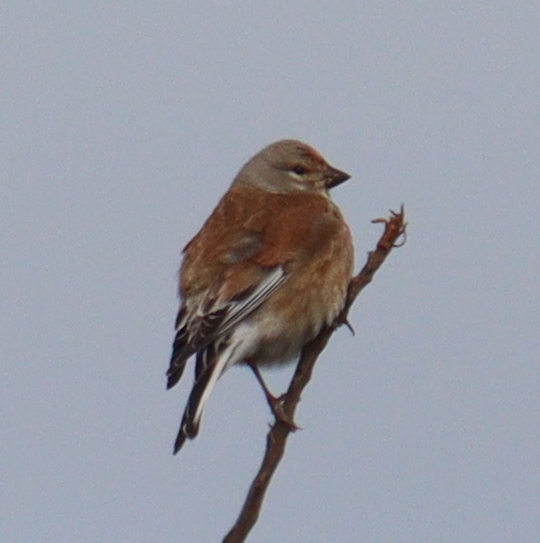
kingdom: Animalia
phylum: Chordata
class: Aves
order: Passeriformes
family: Fringillidae
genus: Linaria
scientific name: Linaria cannabina
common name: Common linnet
